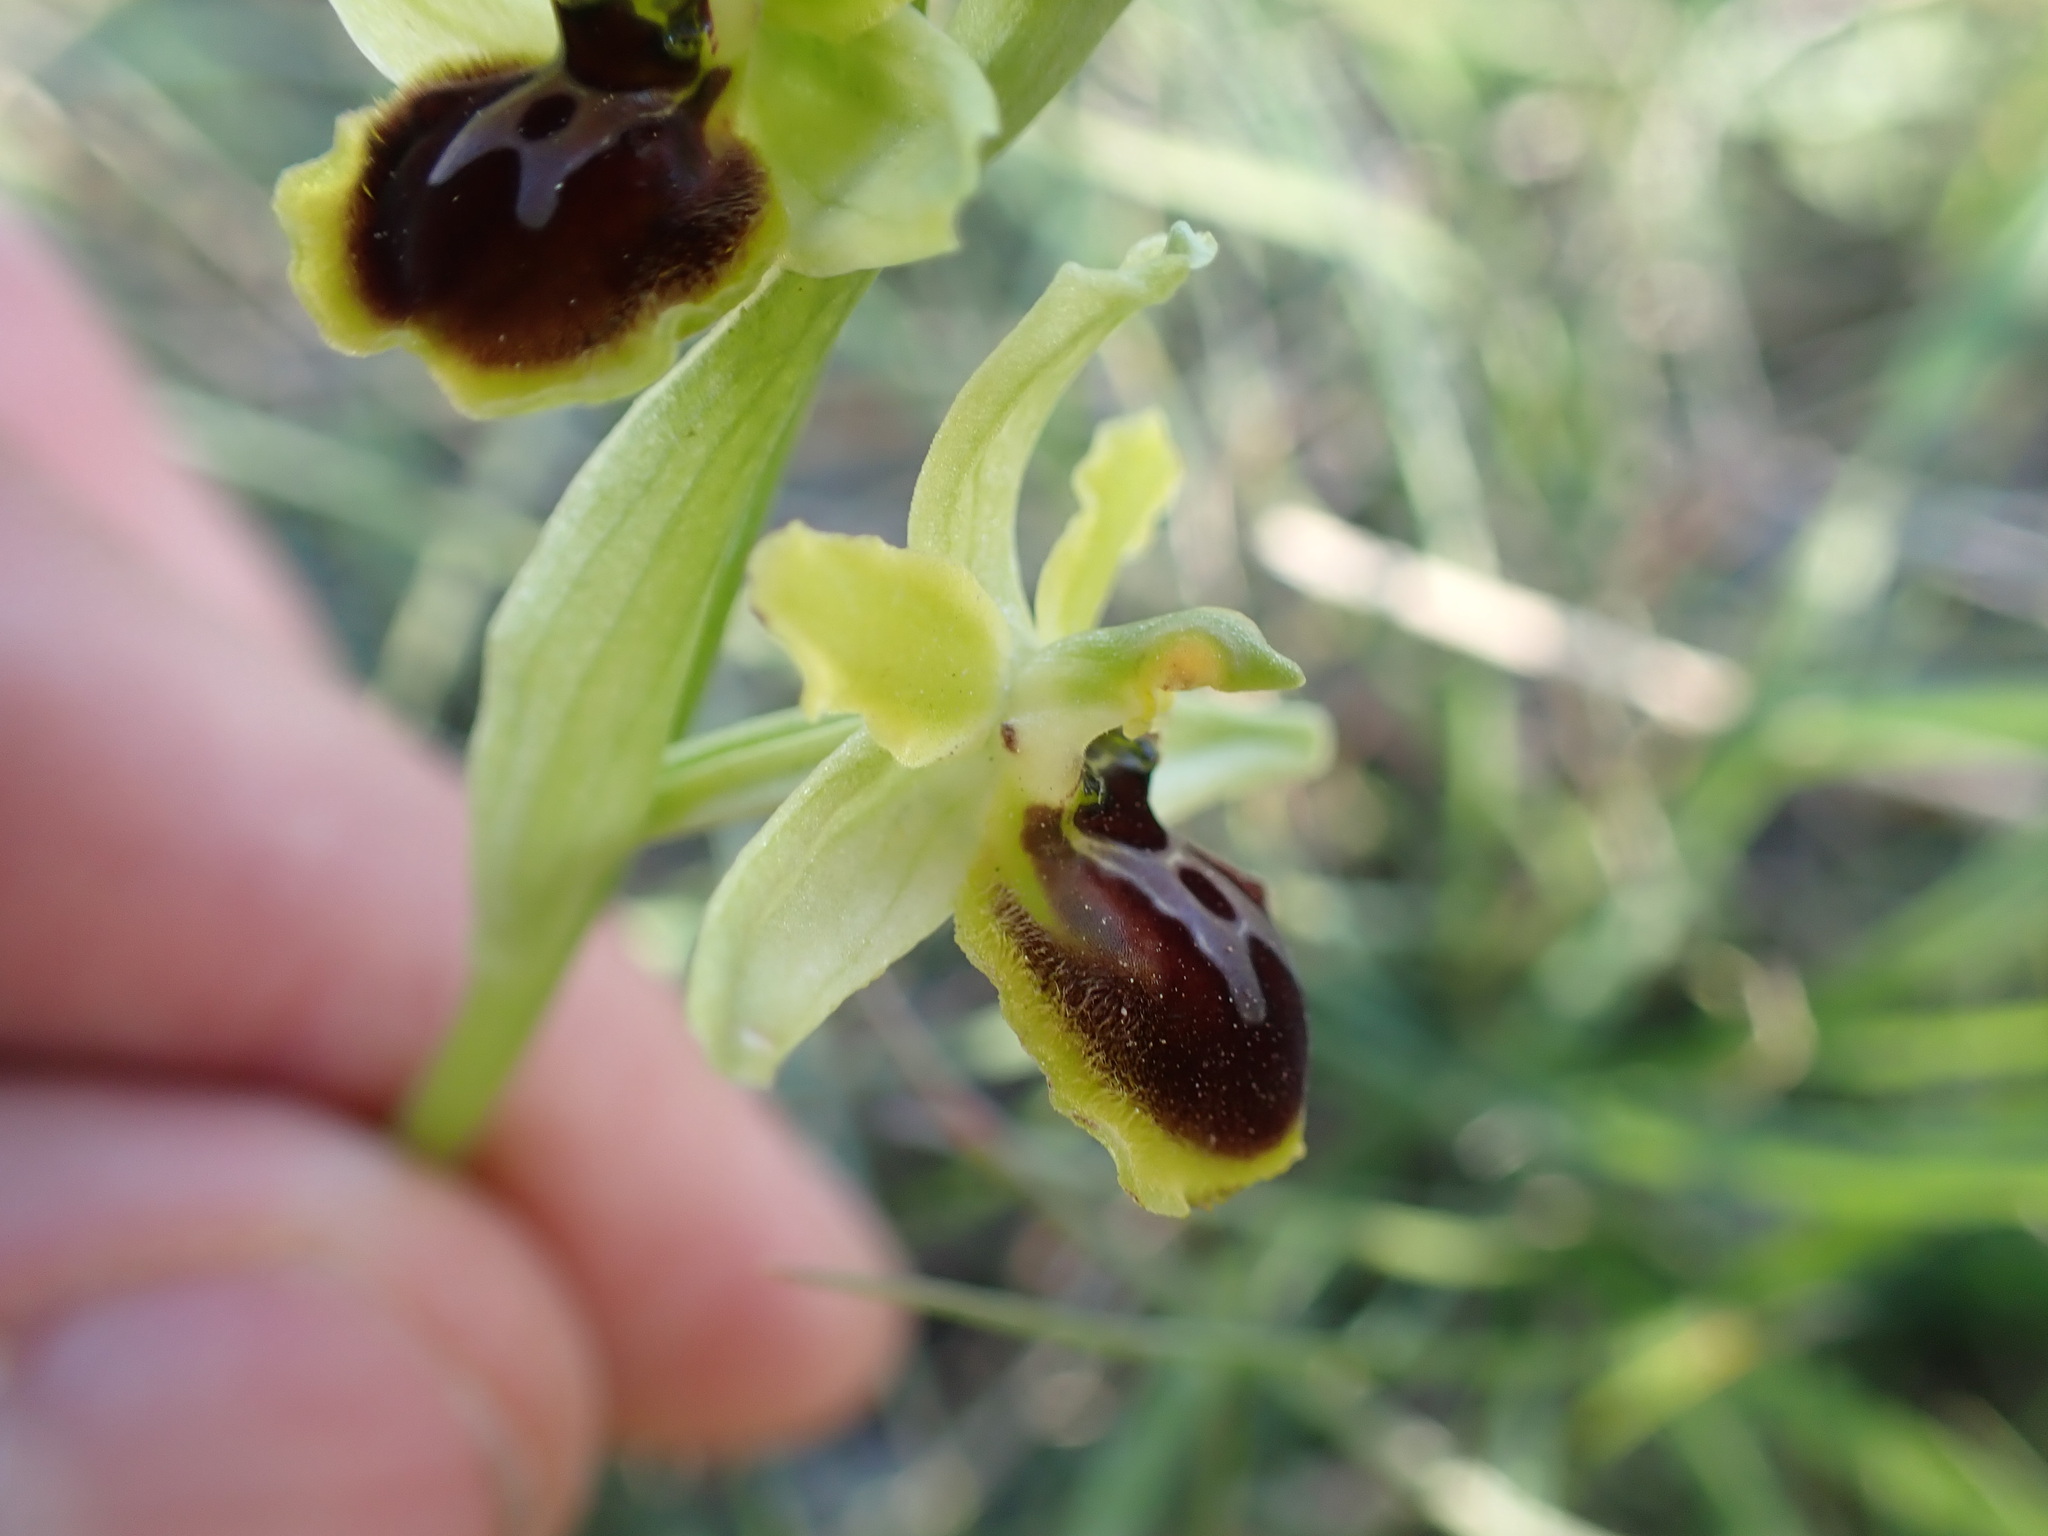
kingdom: Plantae
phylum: Tracheophyta
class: Liliopsida
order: Asparagales
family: Orchidaceae
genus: Ophrys
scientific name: Ophrys araneola
